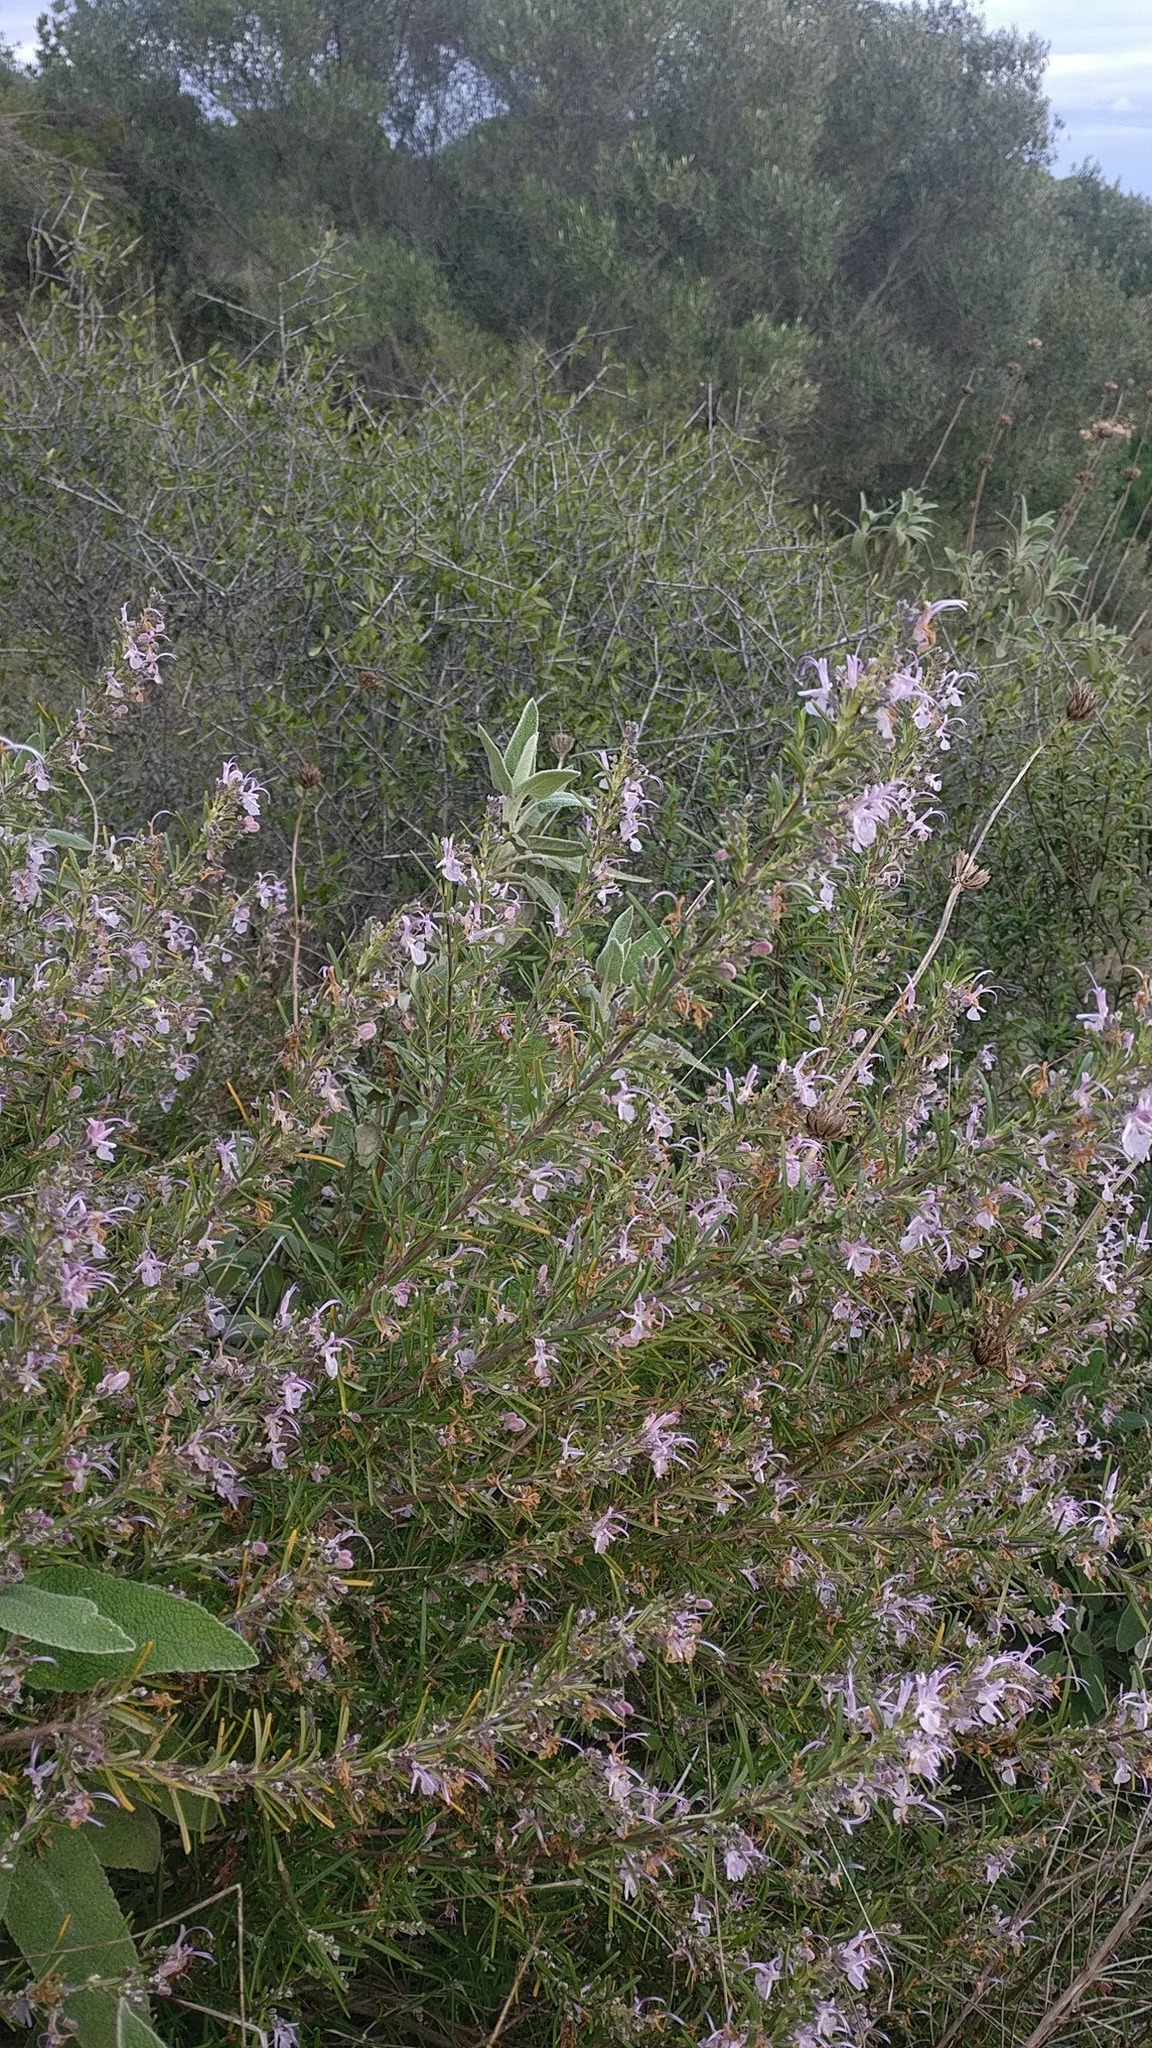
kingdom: Plantae
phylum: Tracheophyta
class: Magnoliopsida
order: Lamiales
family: Lamiaceae
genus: Salvia
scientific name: Salvia rosmarinus
